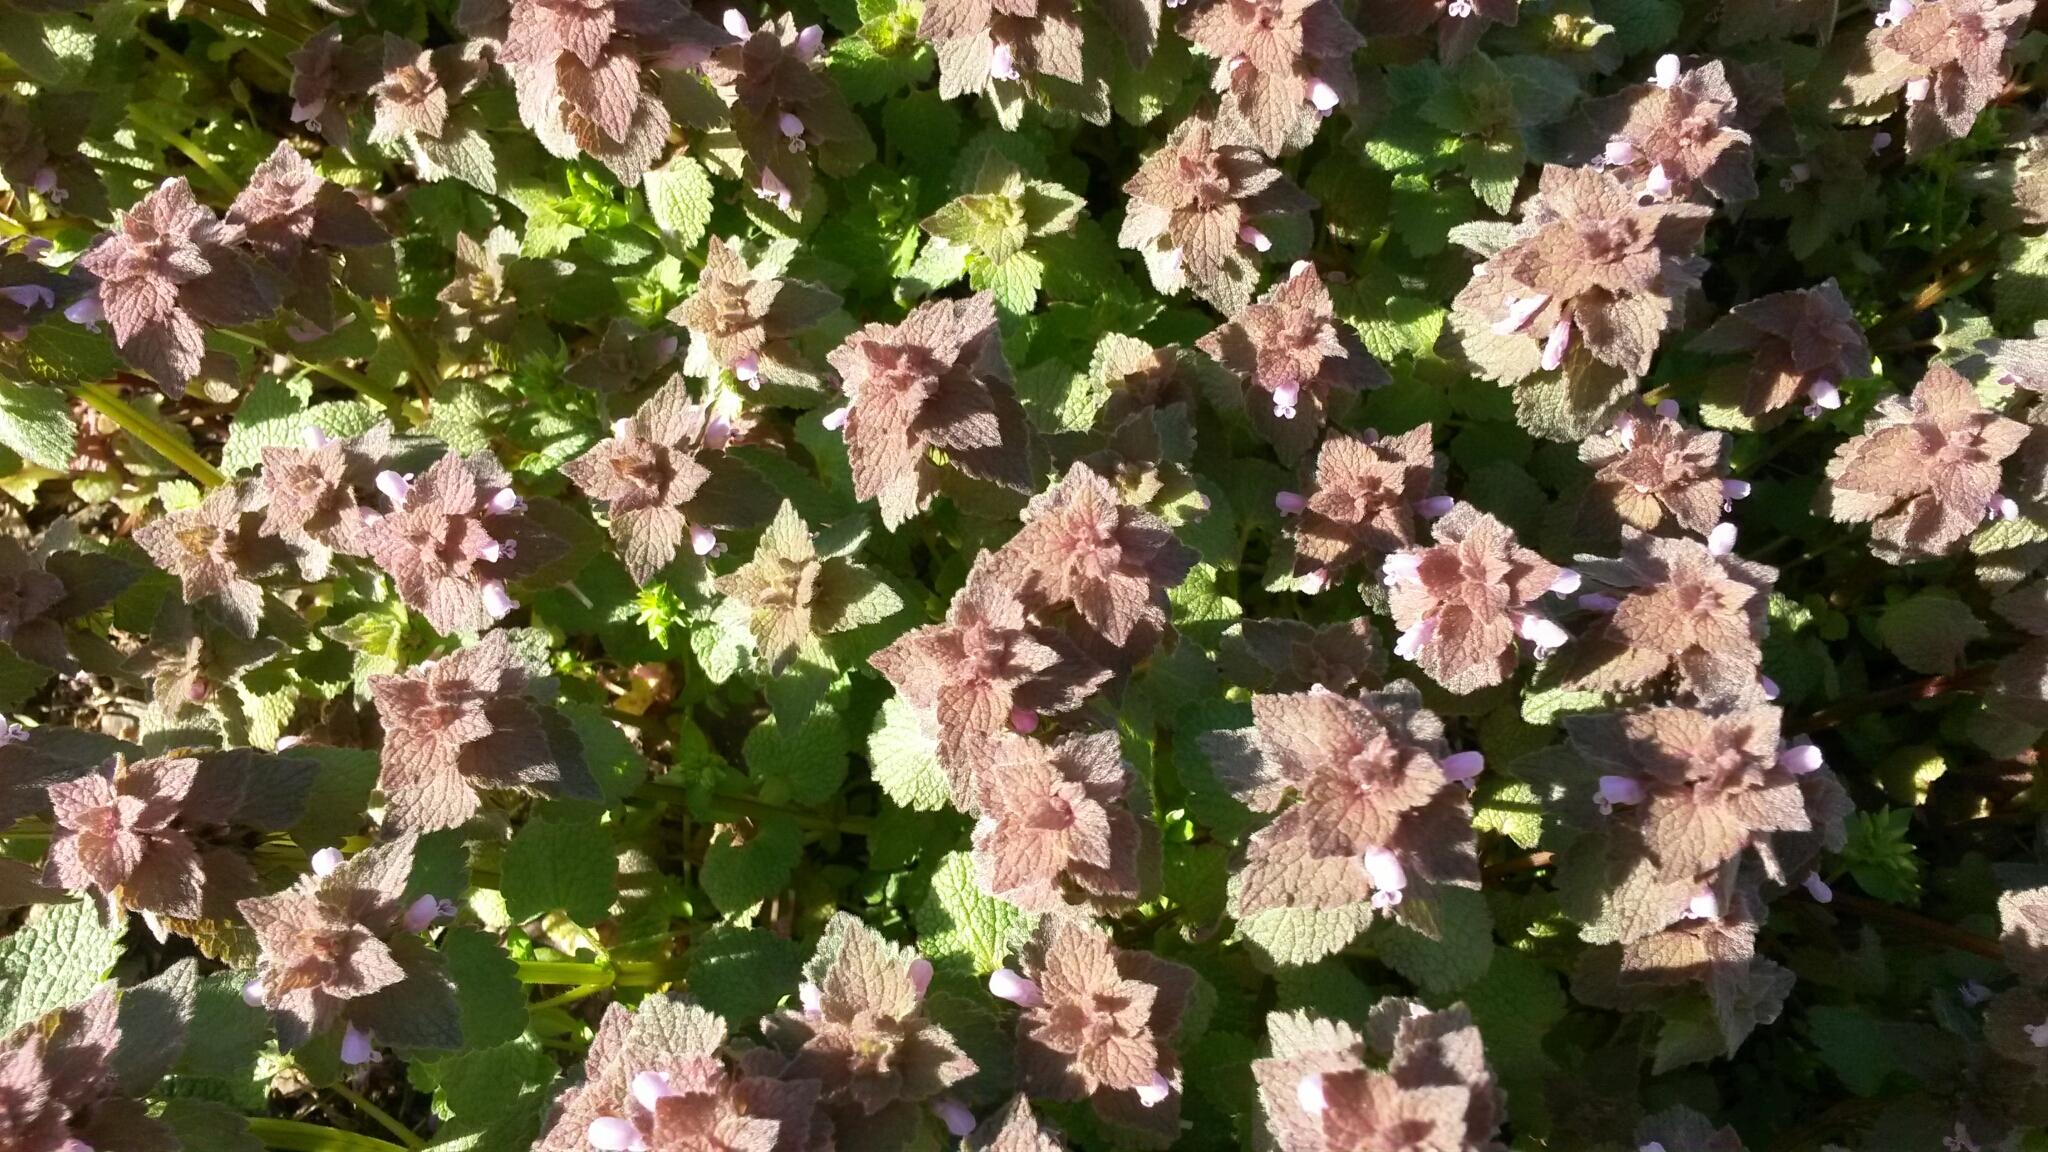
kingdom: Plantae
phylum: Tracheophyta
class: Magnoliopsida
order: Lamiales
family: Lamiaceae
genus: Lamium
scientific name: Lamium purpureum
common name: Red dead-nettle
